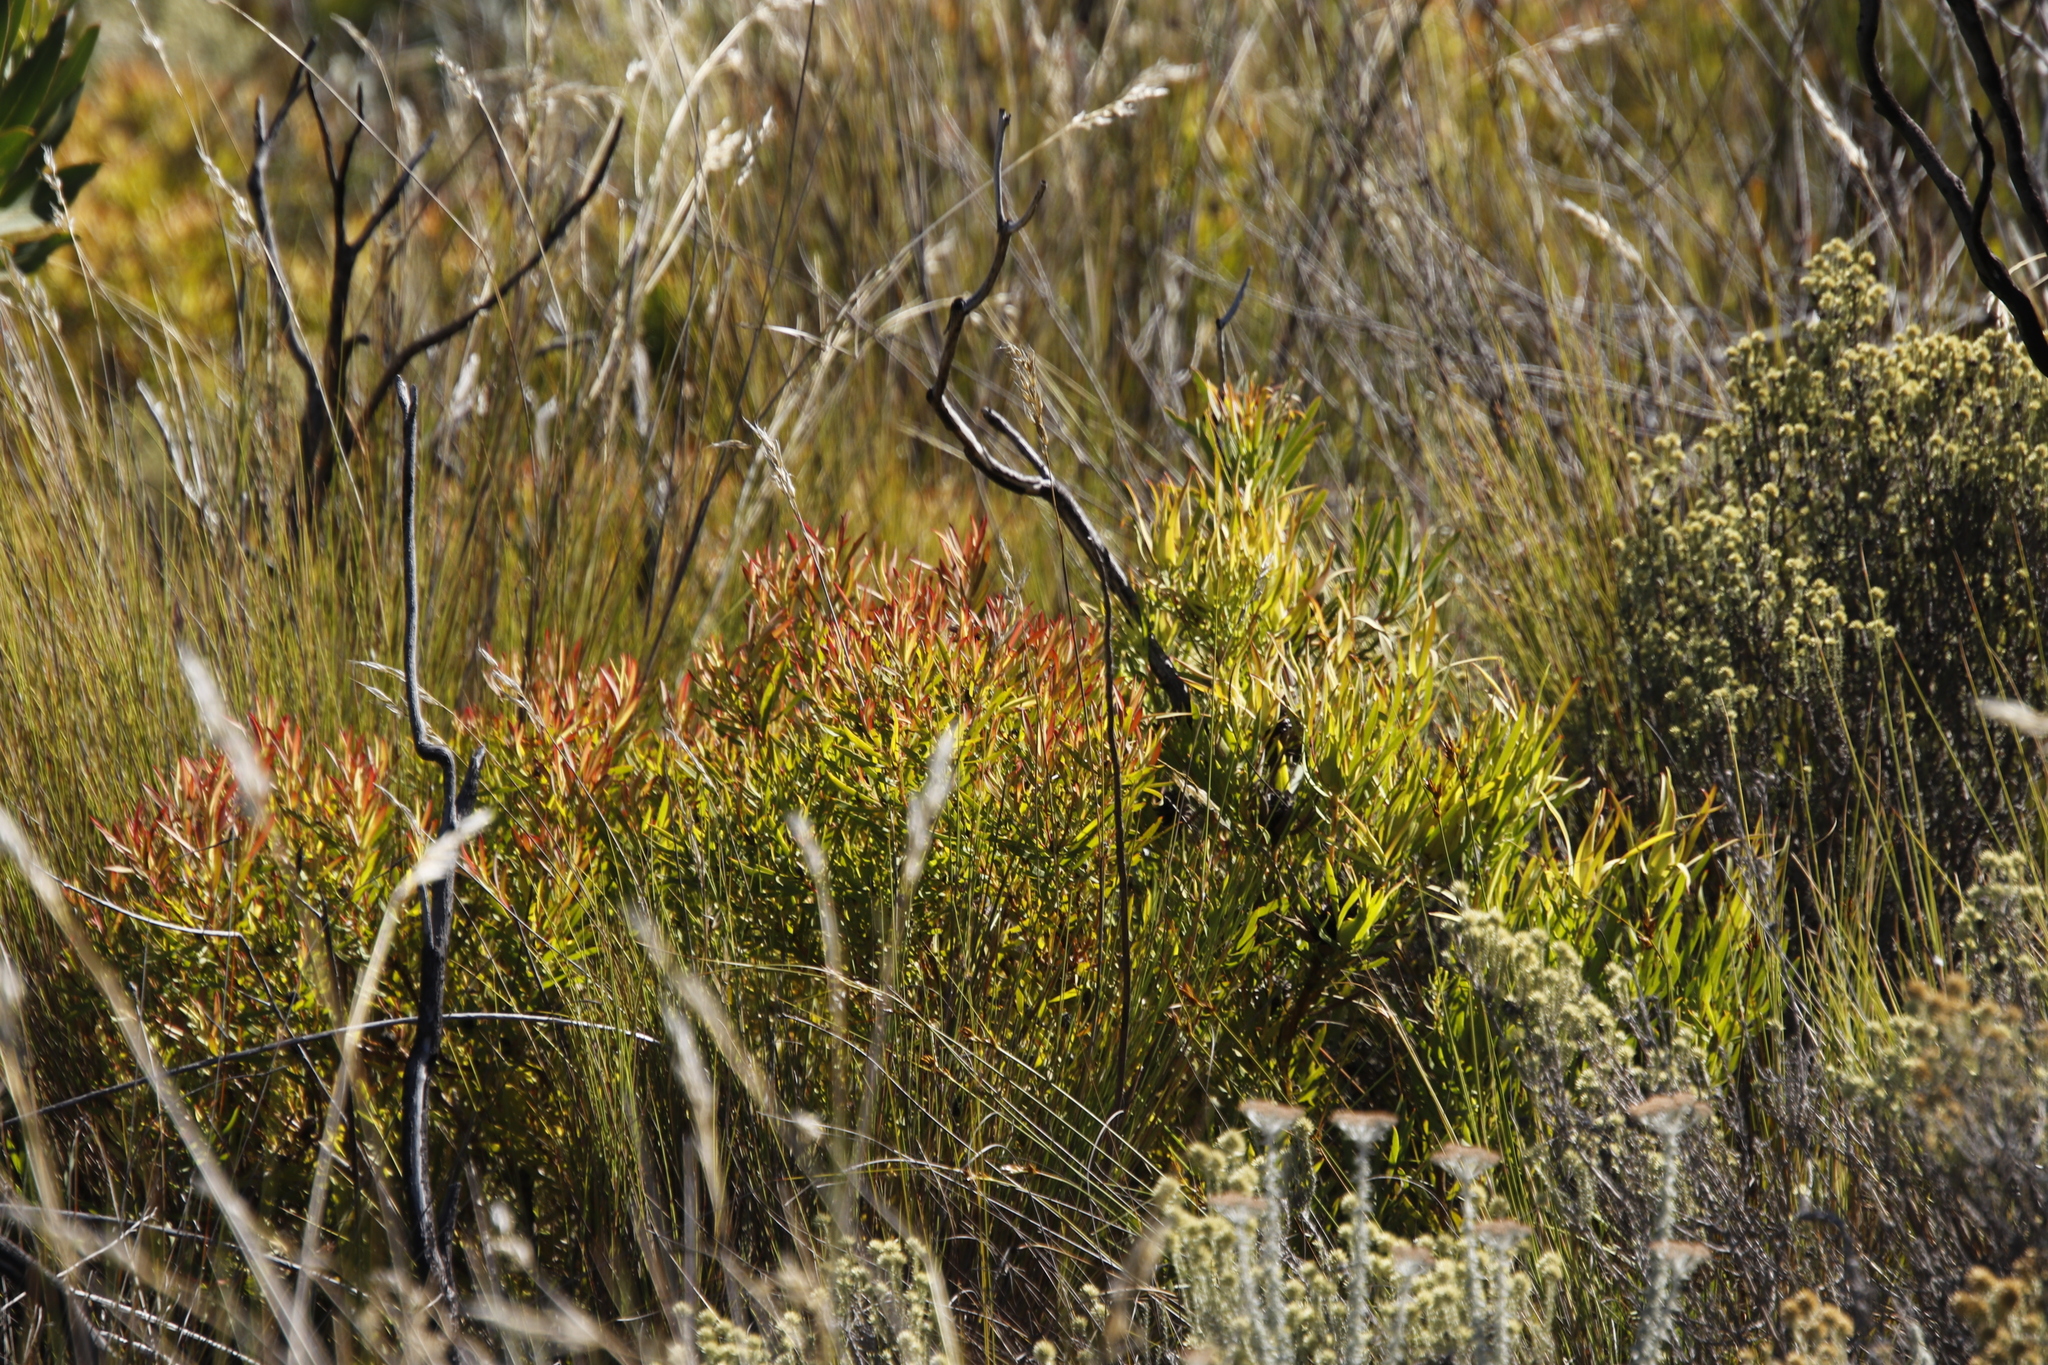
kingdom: Plantae
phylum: Tracheophyta
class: Magnoliopsida
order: Proteales
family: Proteaceae
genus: Leucadendron
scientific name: Leucadendron spissifolium
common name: Spear-leaf conebush
